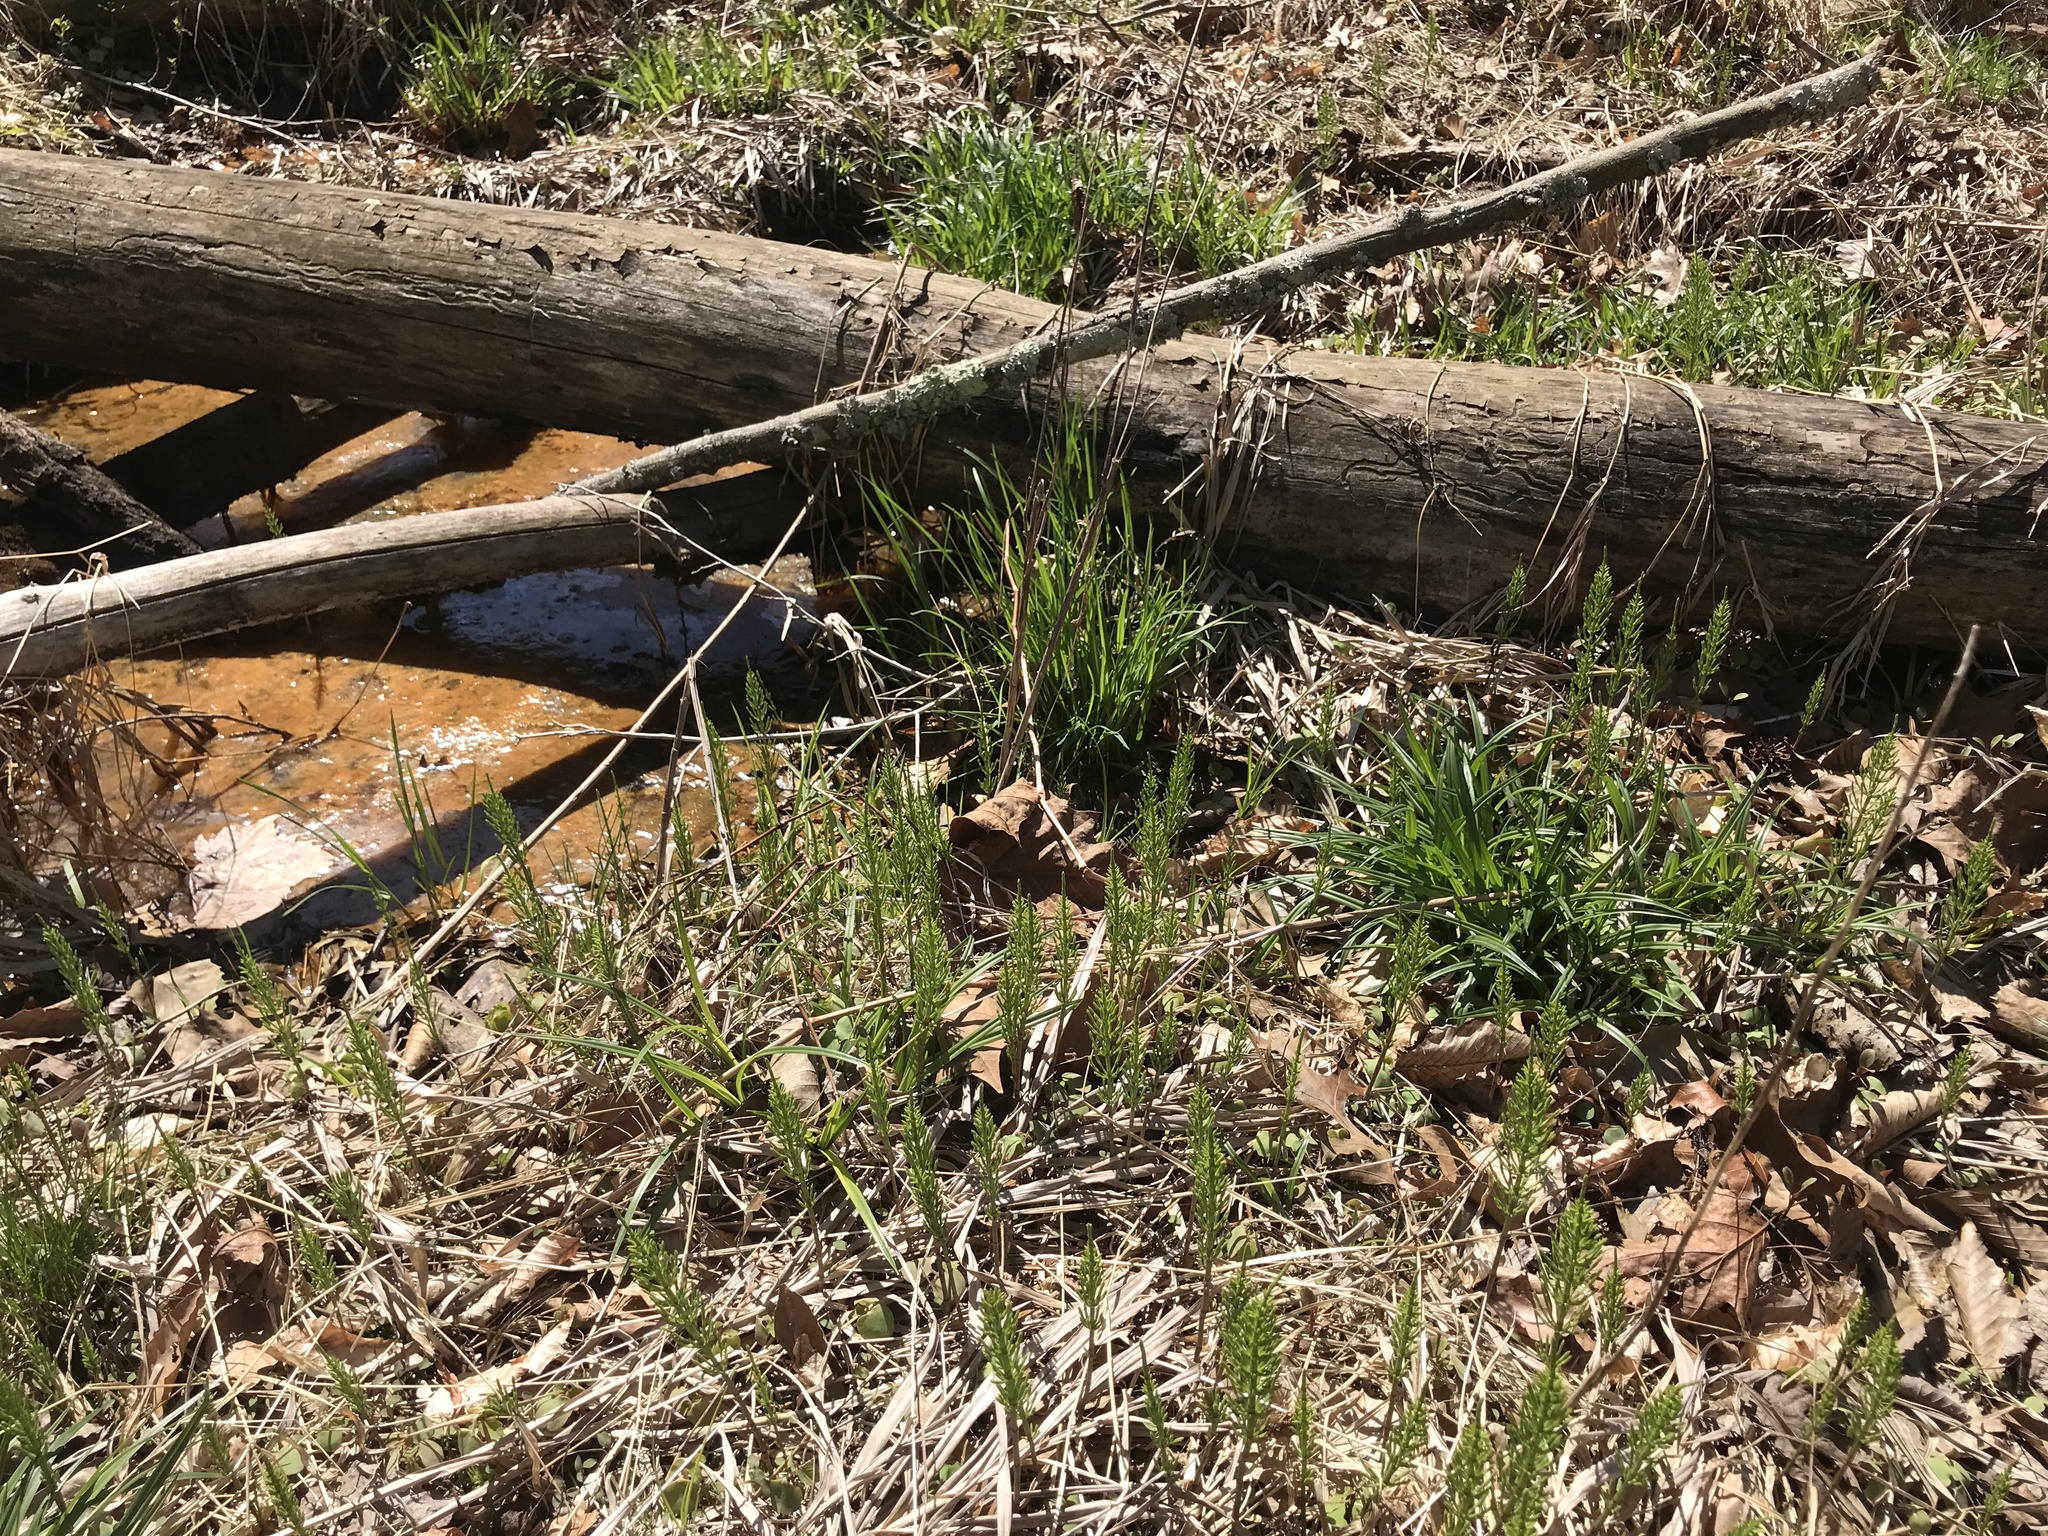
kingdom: Plantae
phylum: Tracheophyta
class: Polypodiopsida
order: Equisetales
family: Equisetaceae
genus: Equisetum
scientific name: Equisetum arvense
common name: Field horsetail
